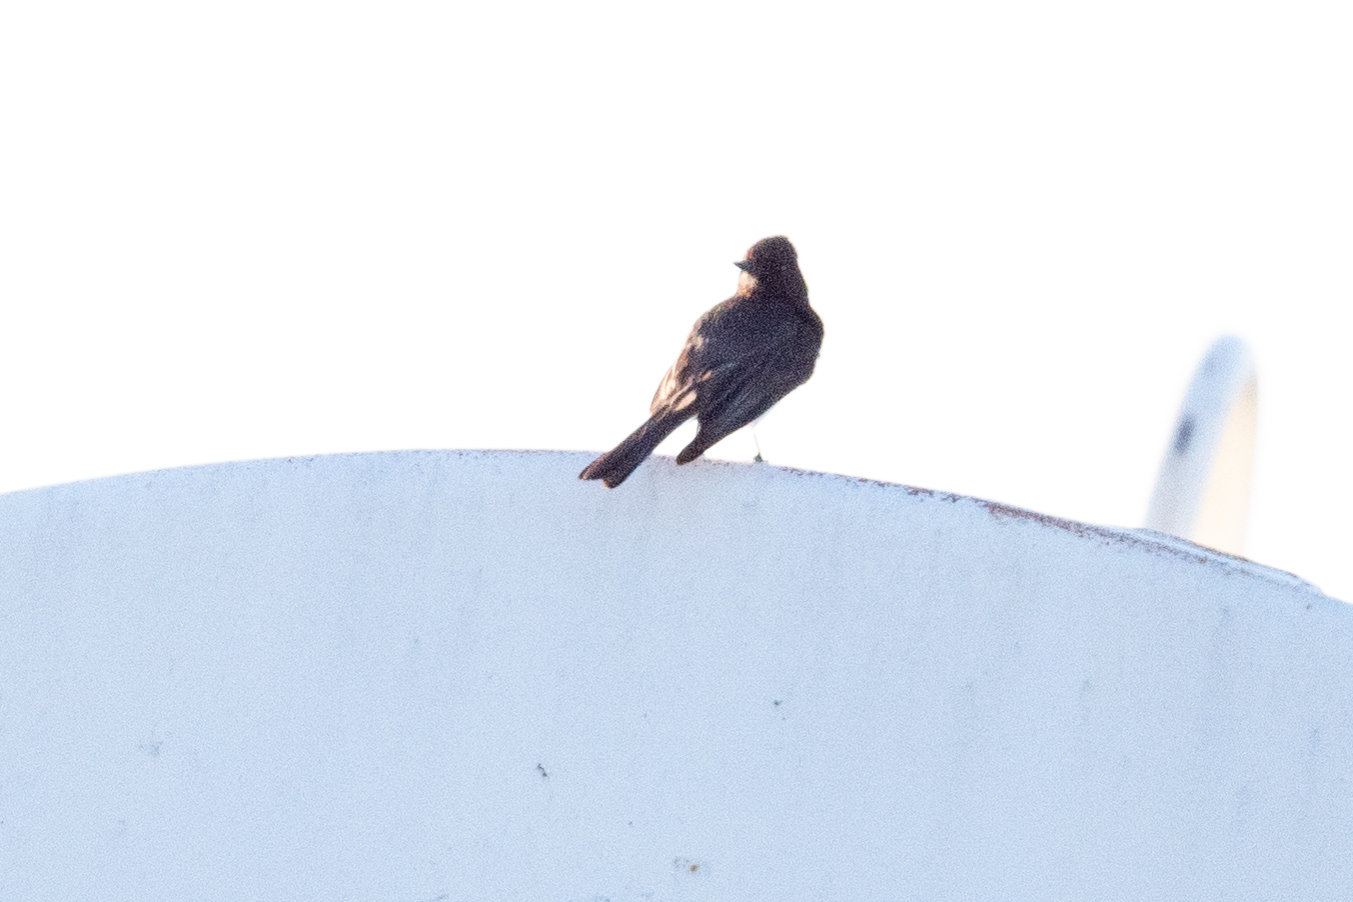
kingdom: Animalia
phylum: Chordata
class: Aves
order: Passeriformes
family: Tyrannidae
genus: Sayornis
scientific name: Sayornis nigricans
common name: Black phoebe
